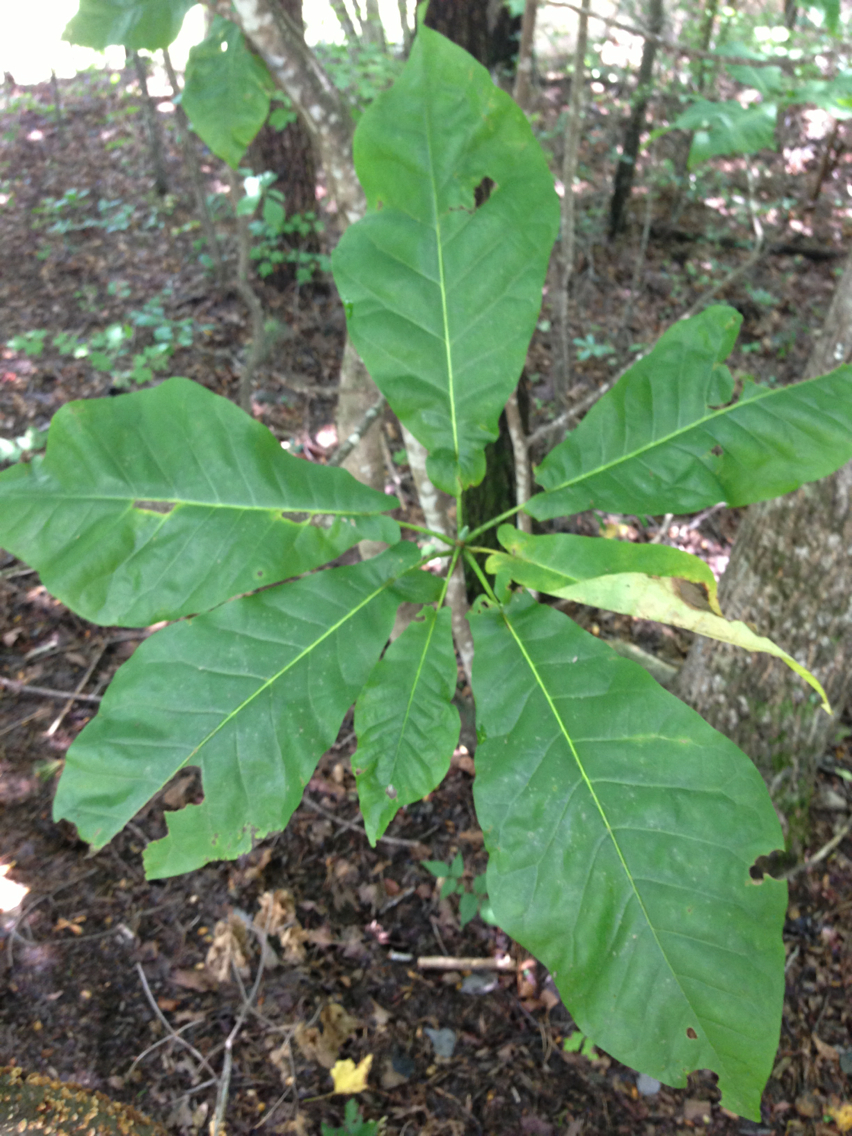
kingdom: Plantae
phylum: Tracheophyta
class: Magnoliopsida
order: Magnoliales
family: Magnoliaceae
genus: Magnolia
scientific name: Magnolia fraseri
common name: Fraser's magnolia
